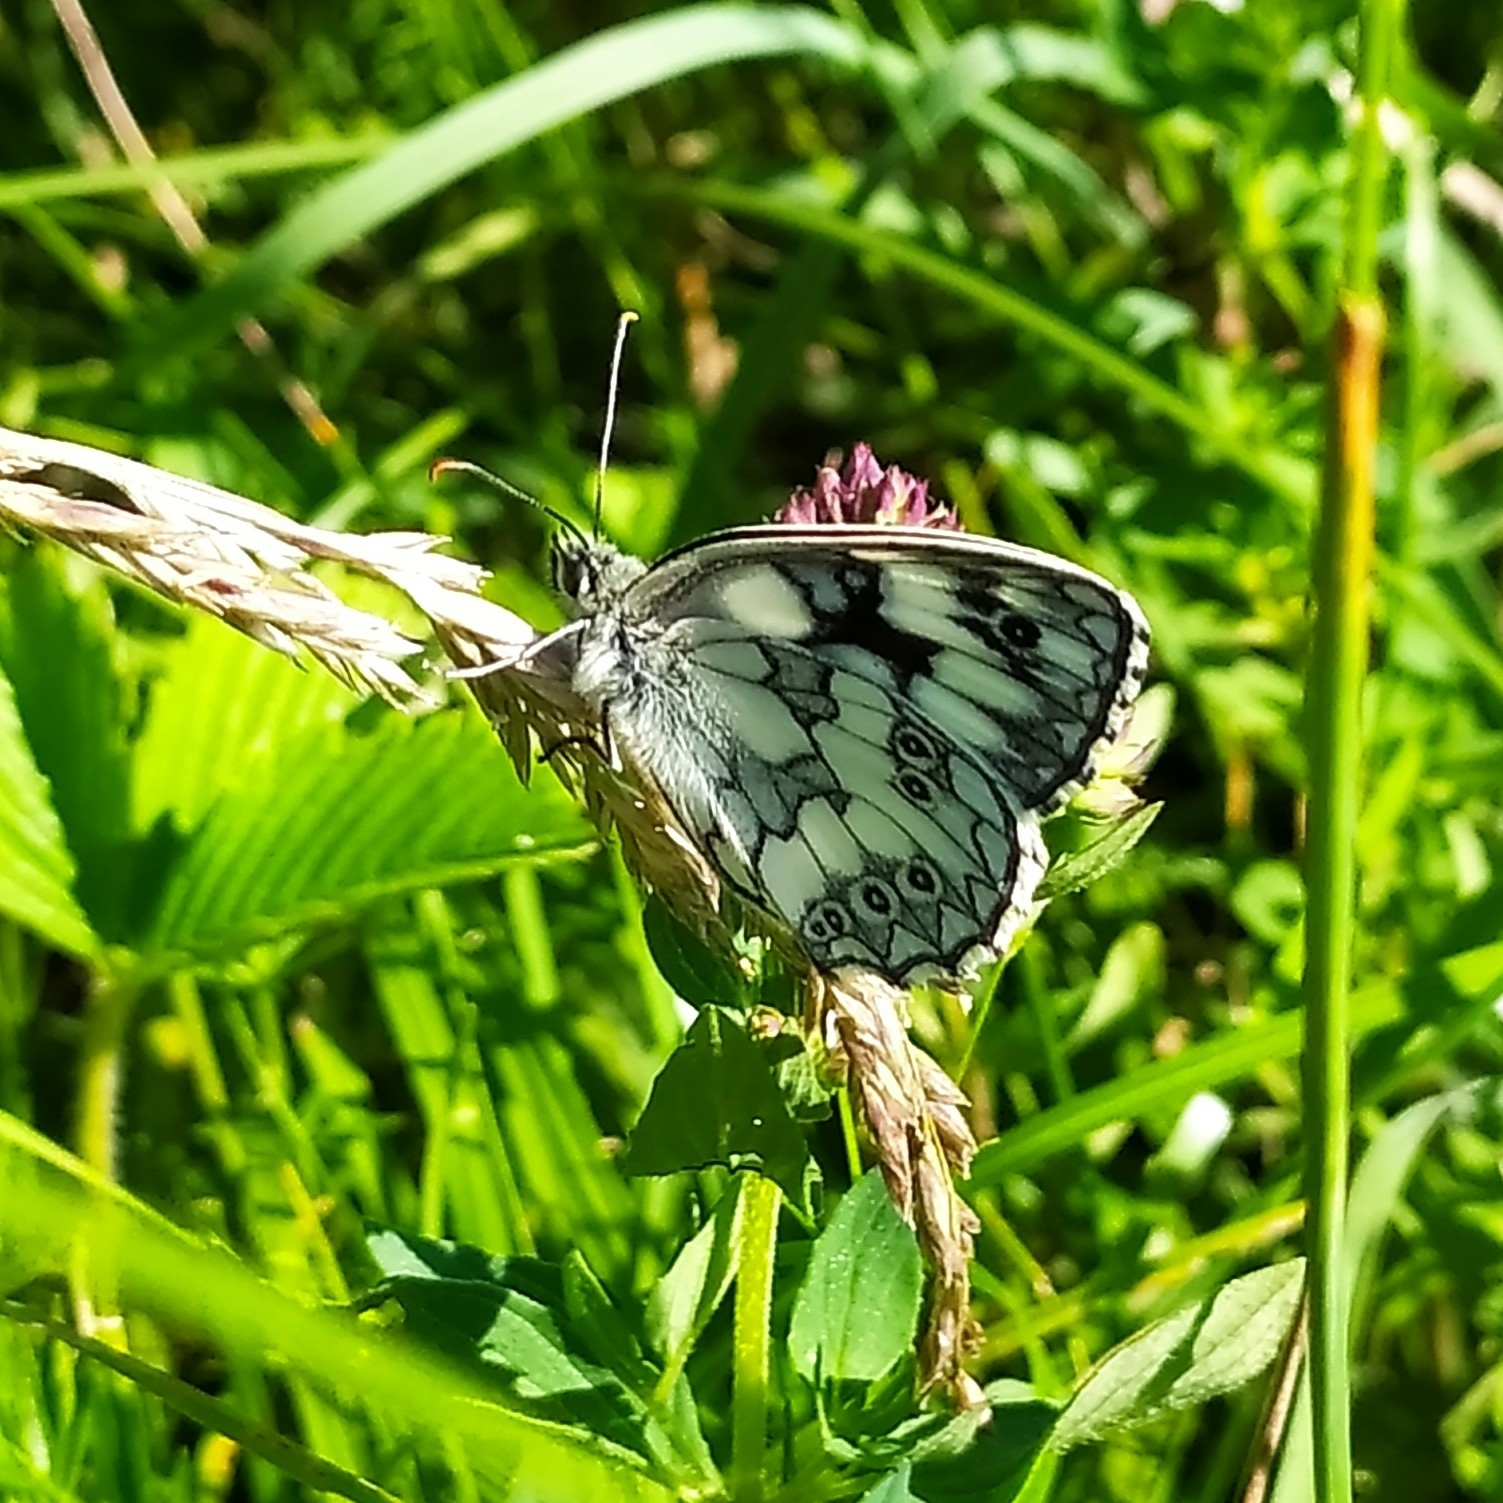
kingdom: Animalia
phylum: Arthropoda
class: Insecta
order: Lepidoptera
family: Nymphalidae
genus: Melanargia
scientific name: Melanargia galathea
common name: Marbled white
